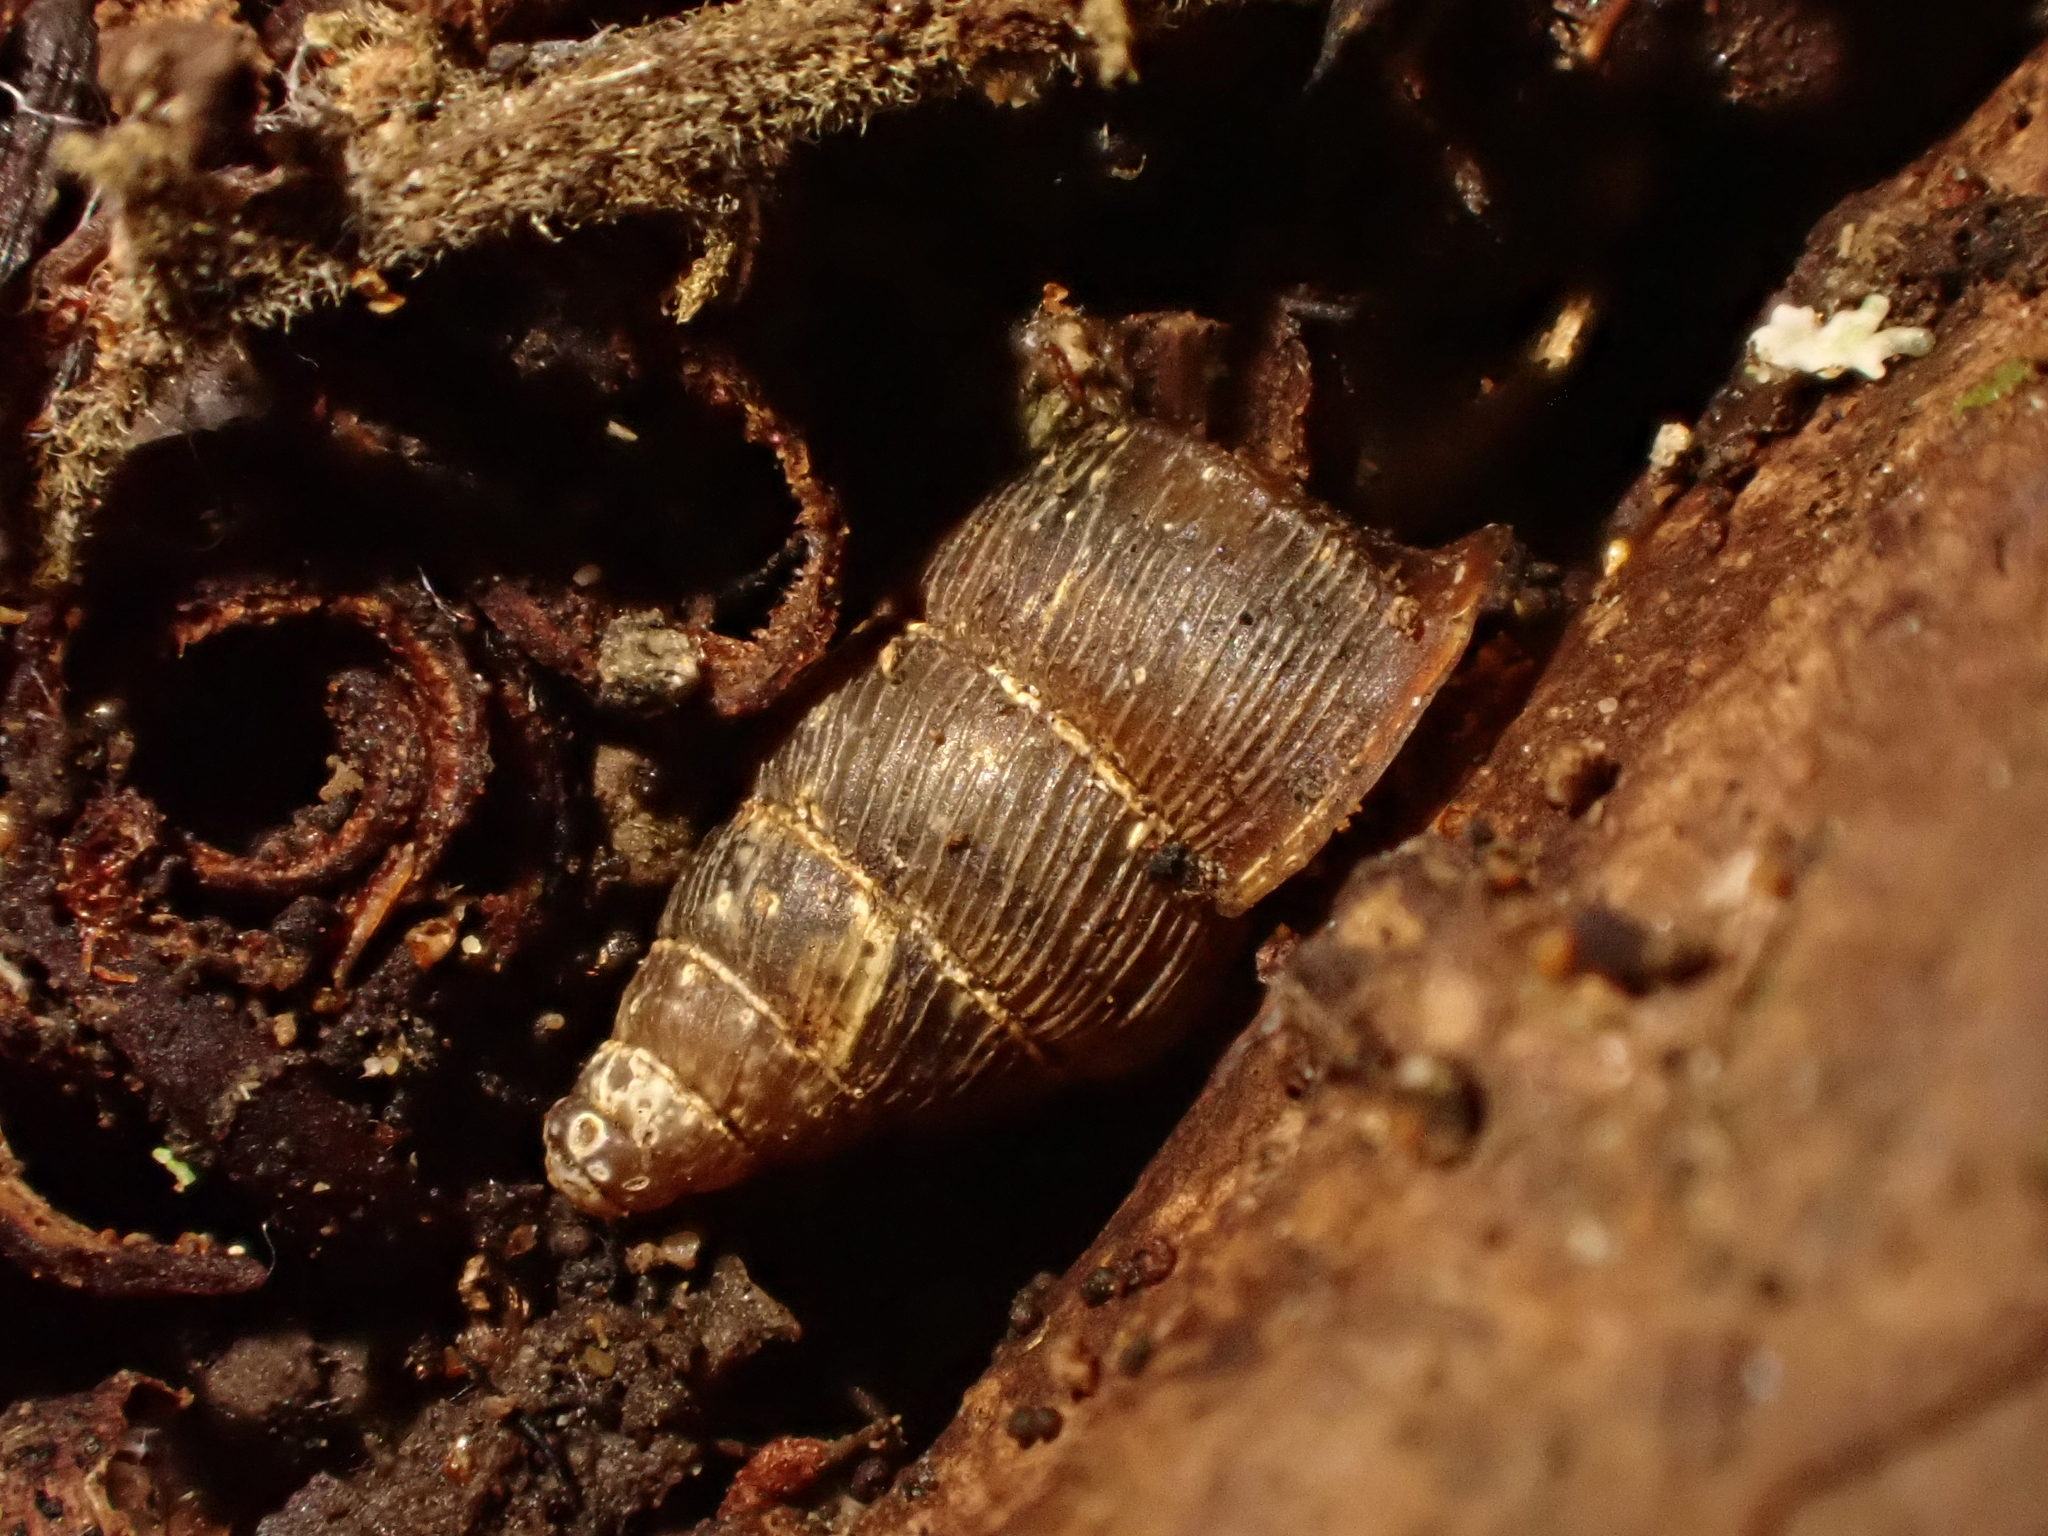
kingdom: Animalia
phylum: Mollusca
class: Gastropoda
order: Architaenioglossa
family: Pupinidae
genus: Liarea
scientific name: Liarea hochstetteri
